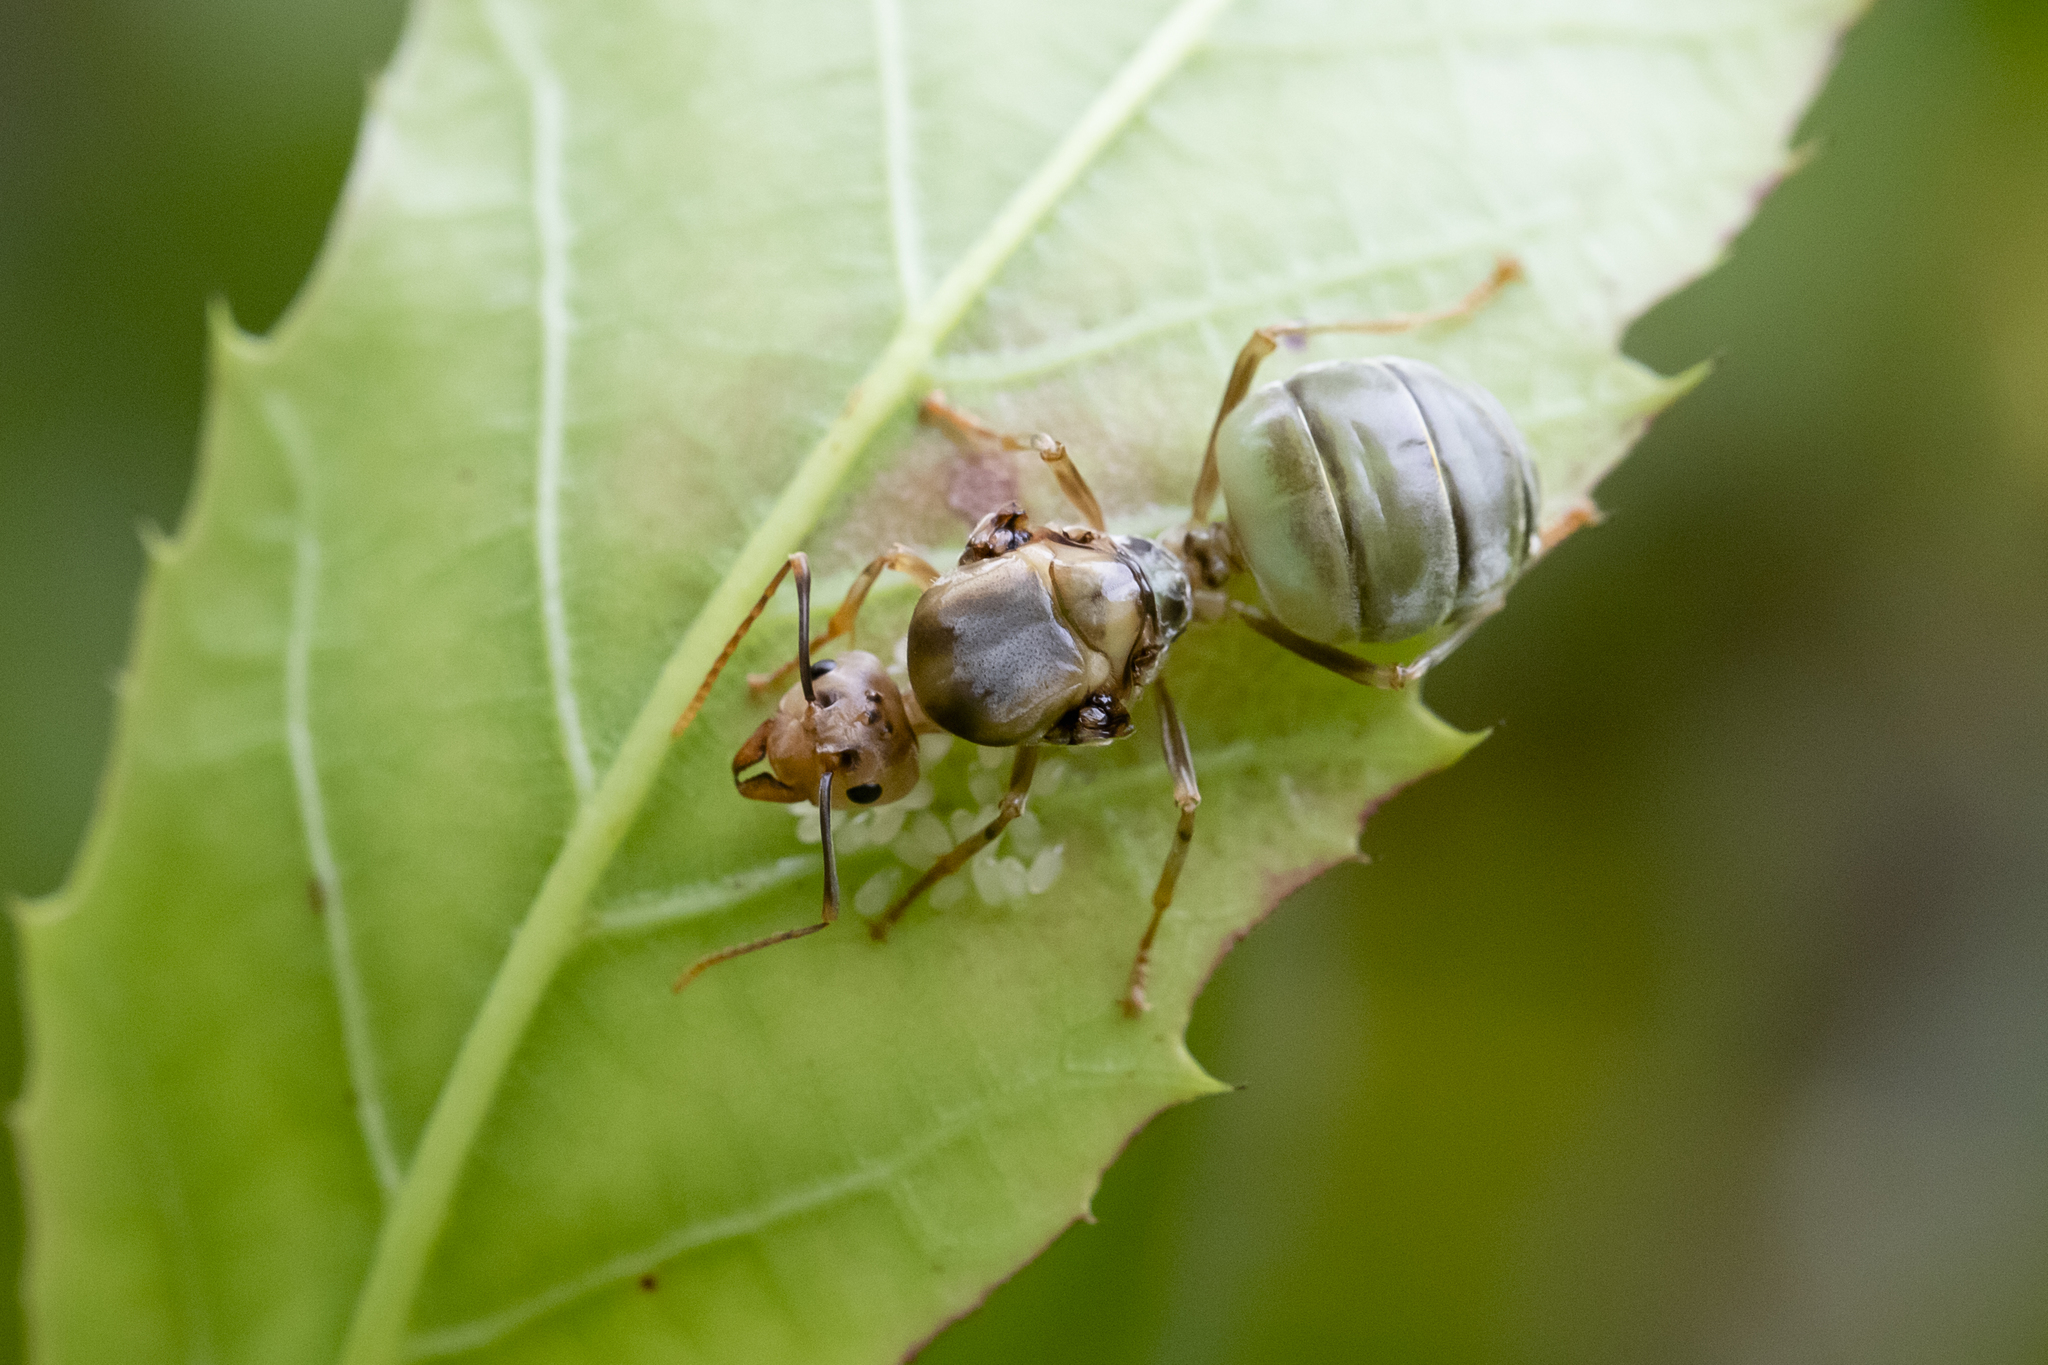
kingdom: Animalia
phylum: Arthropoda
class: Insecta
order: Hymenoptera
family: Formicidae
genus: Oecophylla
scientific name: Oecophylla smaragdina
